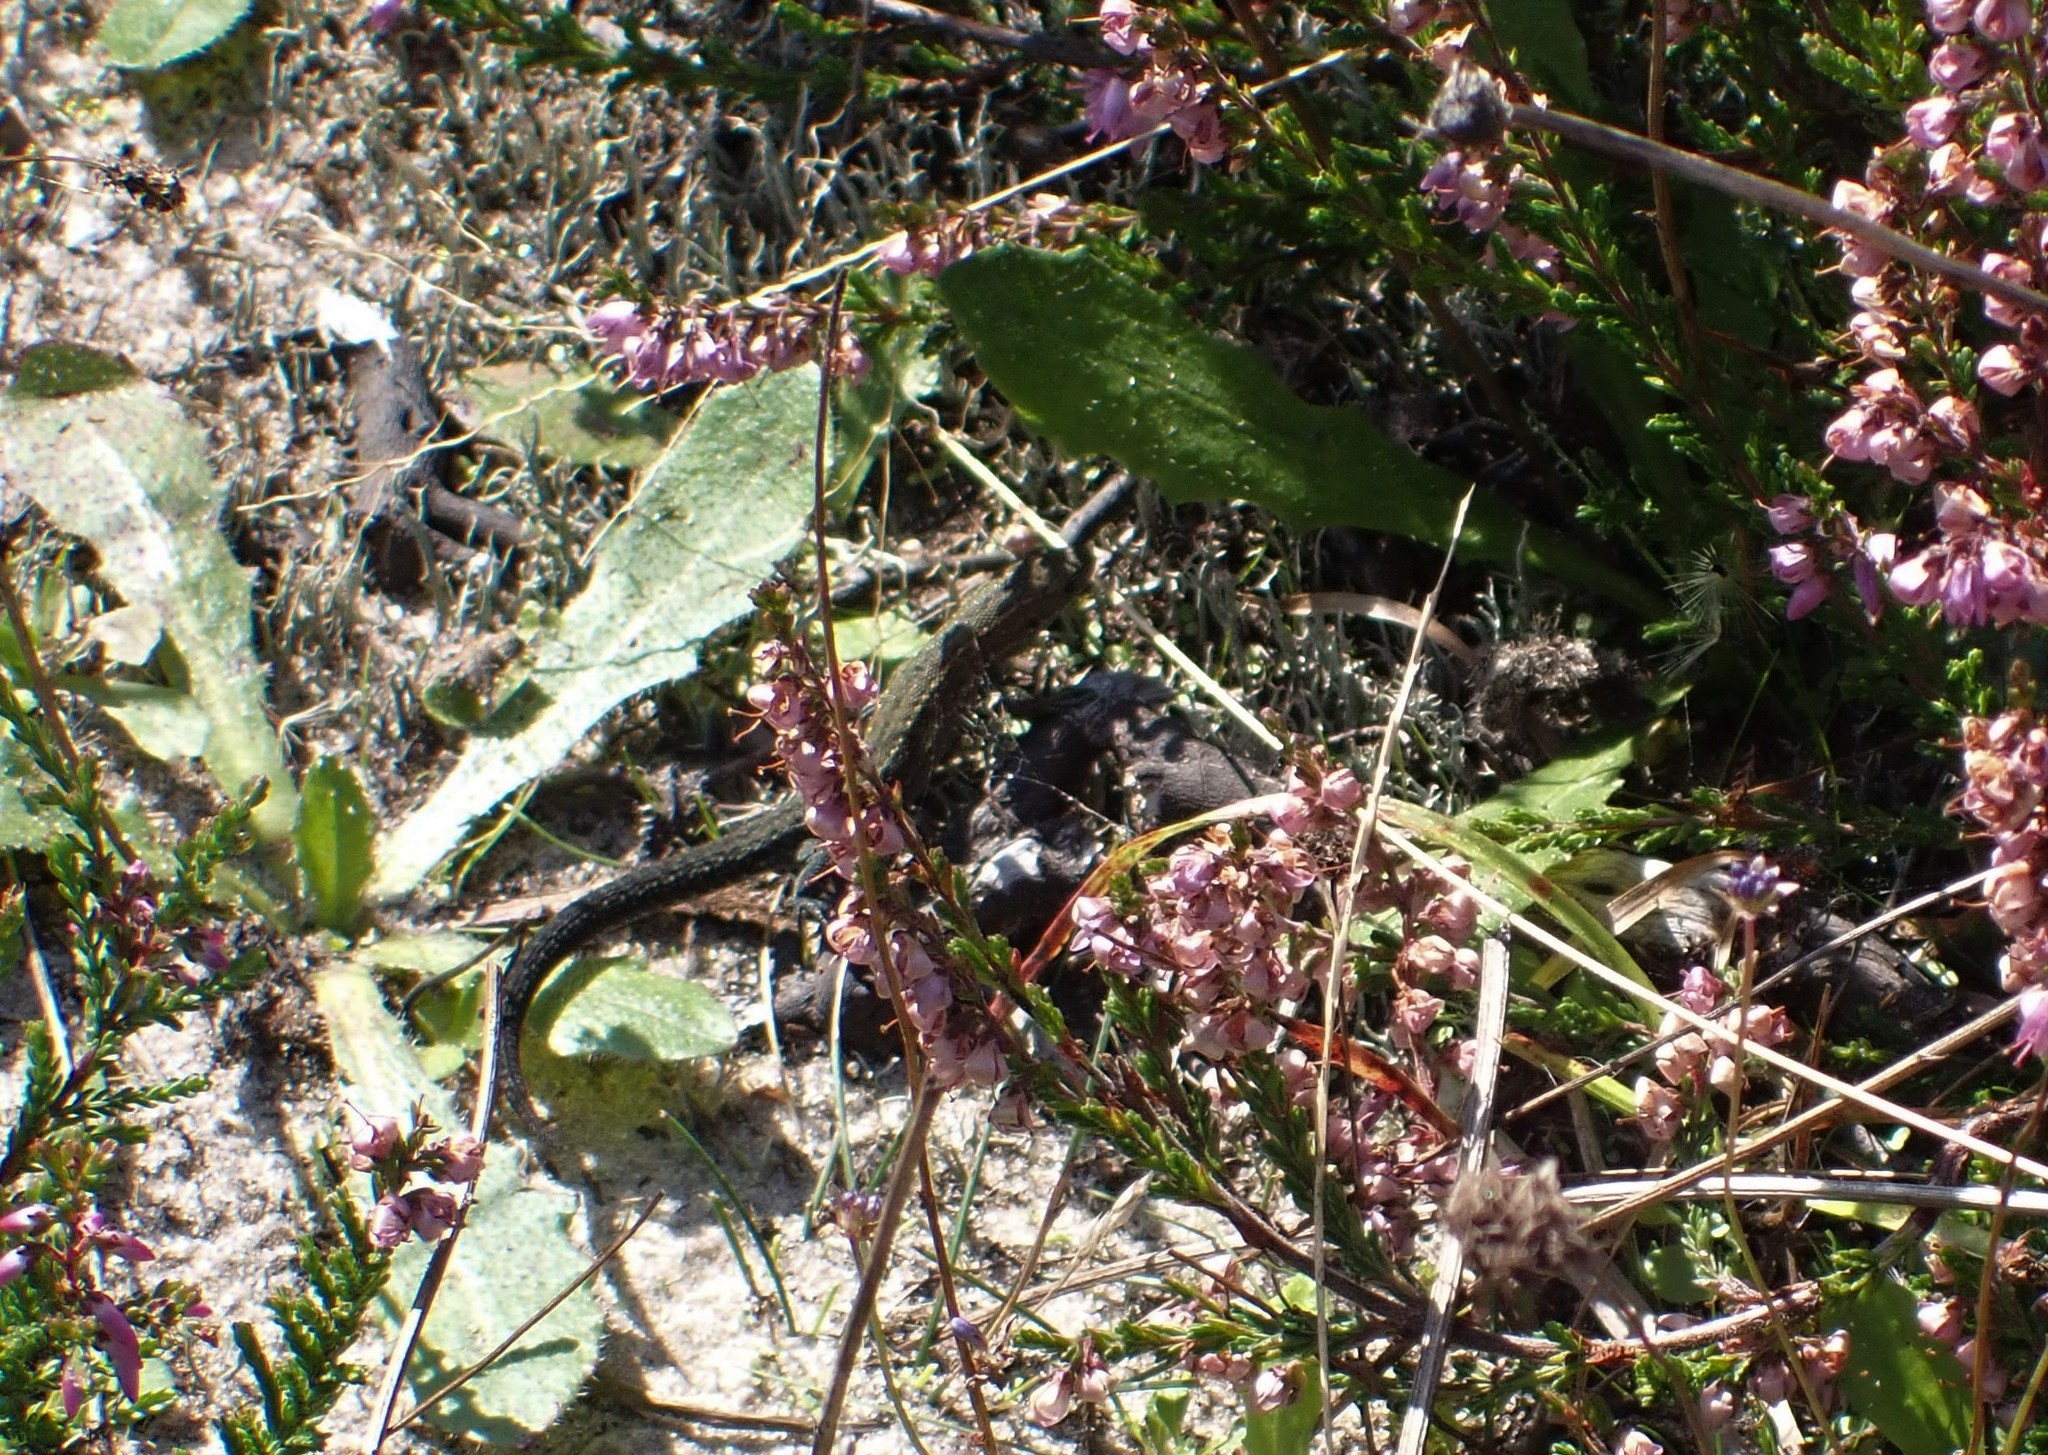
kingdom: Animalia
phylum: Chordata
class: Squamata
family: Lacertidae
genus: Zootoca
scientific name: Zootoca vivipara
